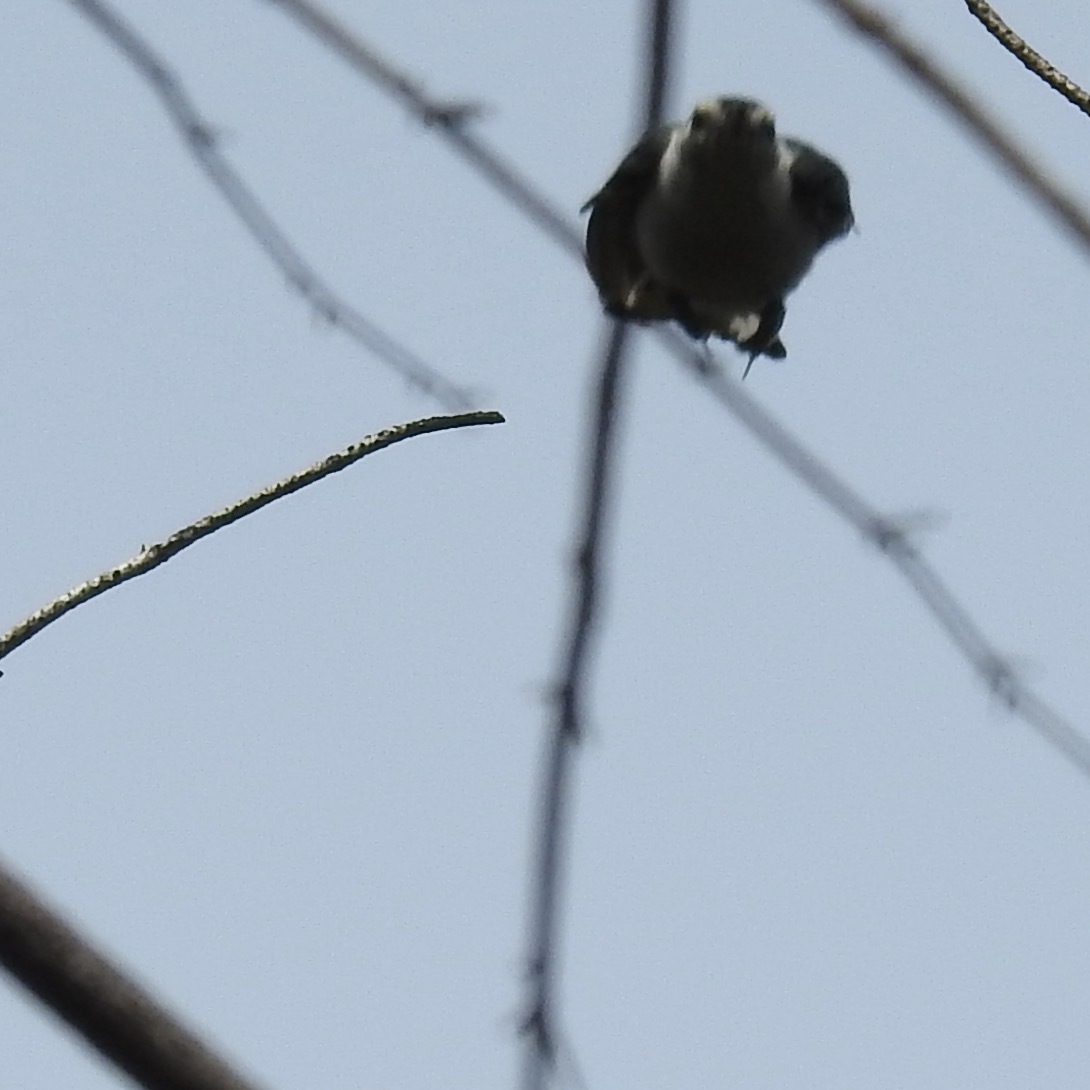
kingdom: Animalia
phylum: Chordata
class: Aves
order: Passeriformes
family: Sittidae
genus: Sitta
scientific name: Sitta carolinensis
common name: White-breasted nuthatch
